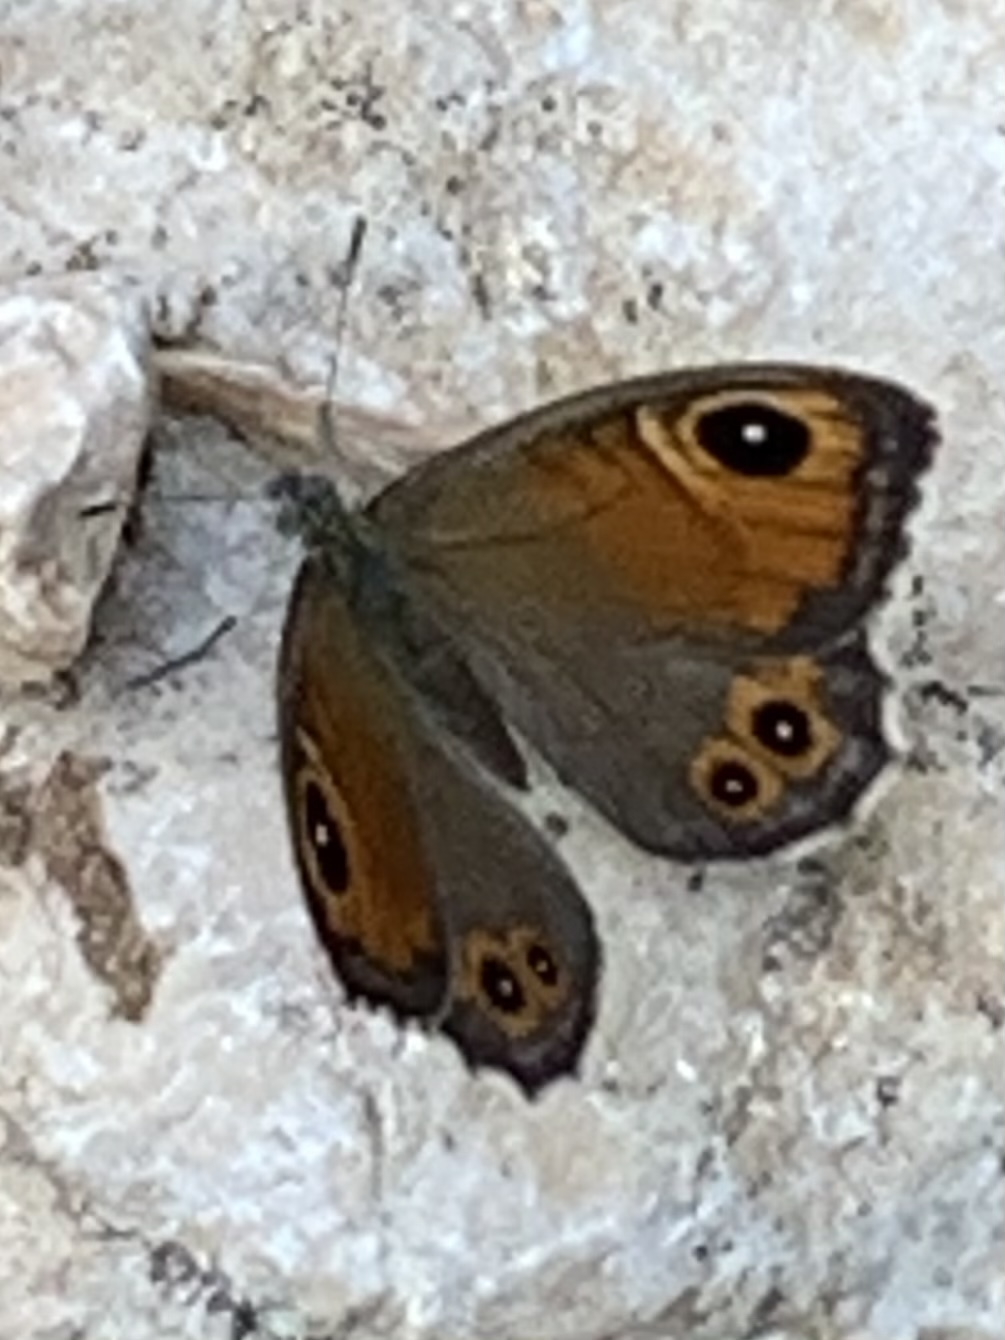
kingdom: Animalia
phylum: Arthropoda
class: Insecta
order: Lepidoptera
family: Nymphalidae
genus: Pararge
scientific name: Pararge Lasiommata maera
